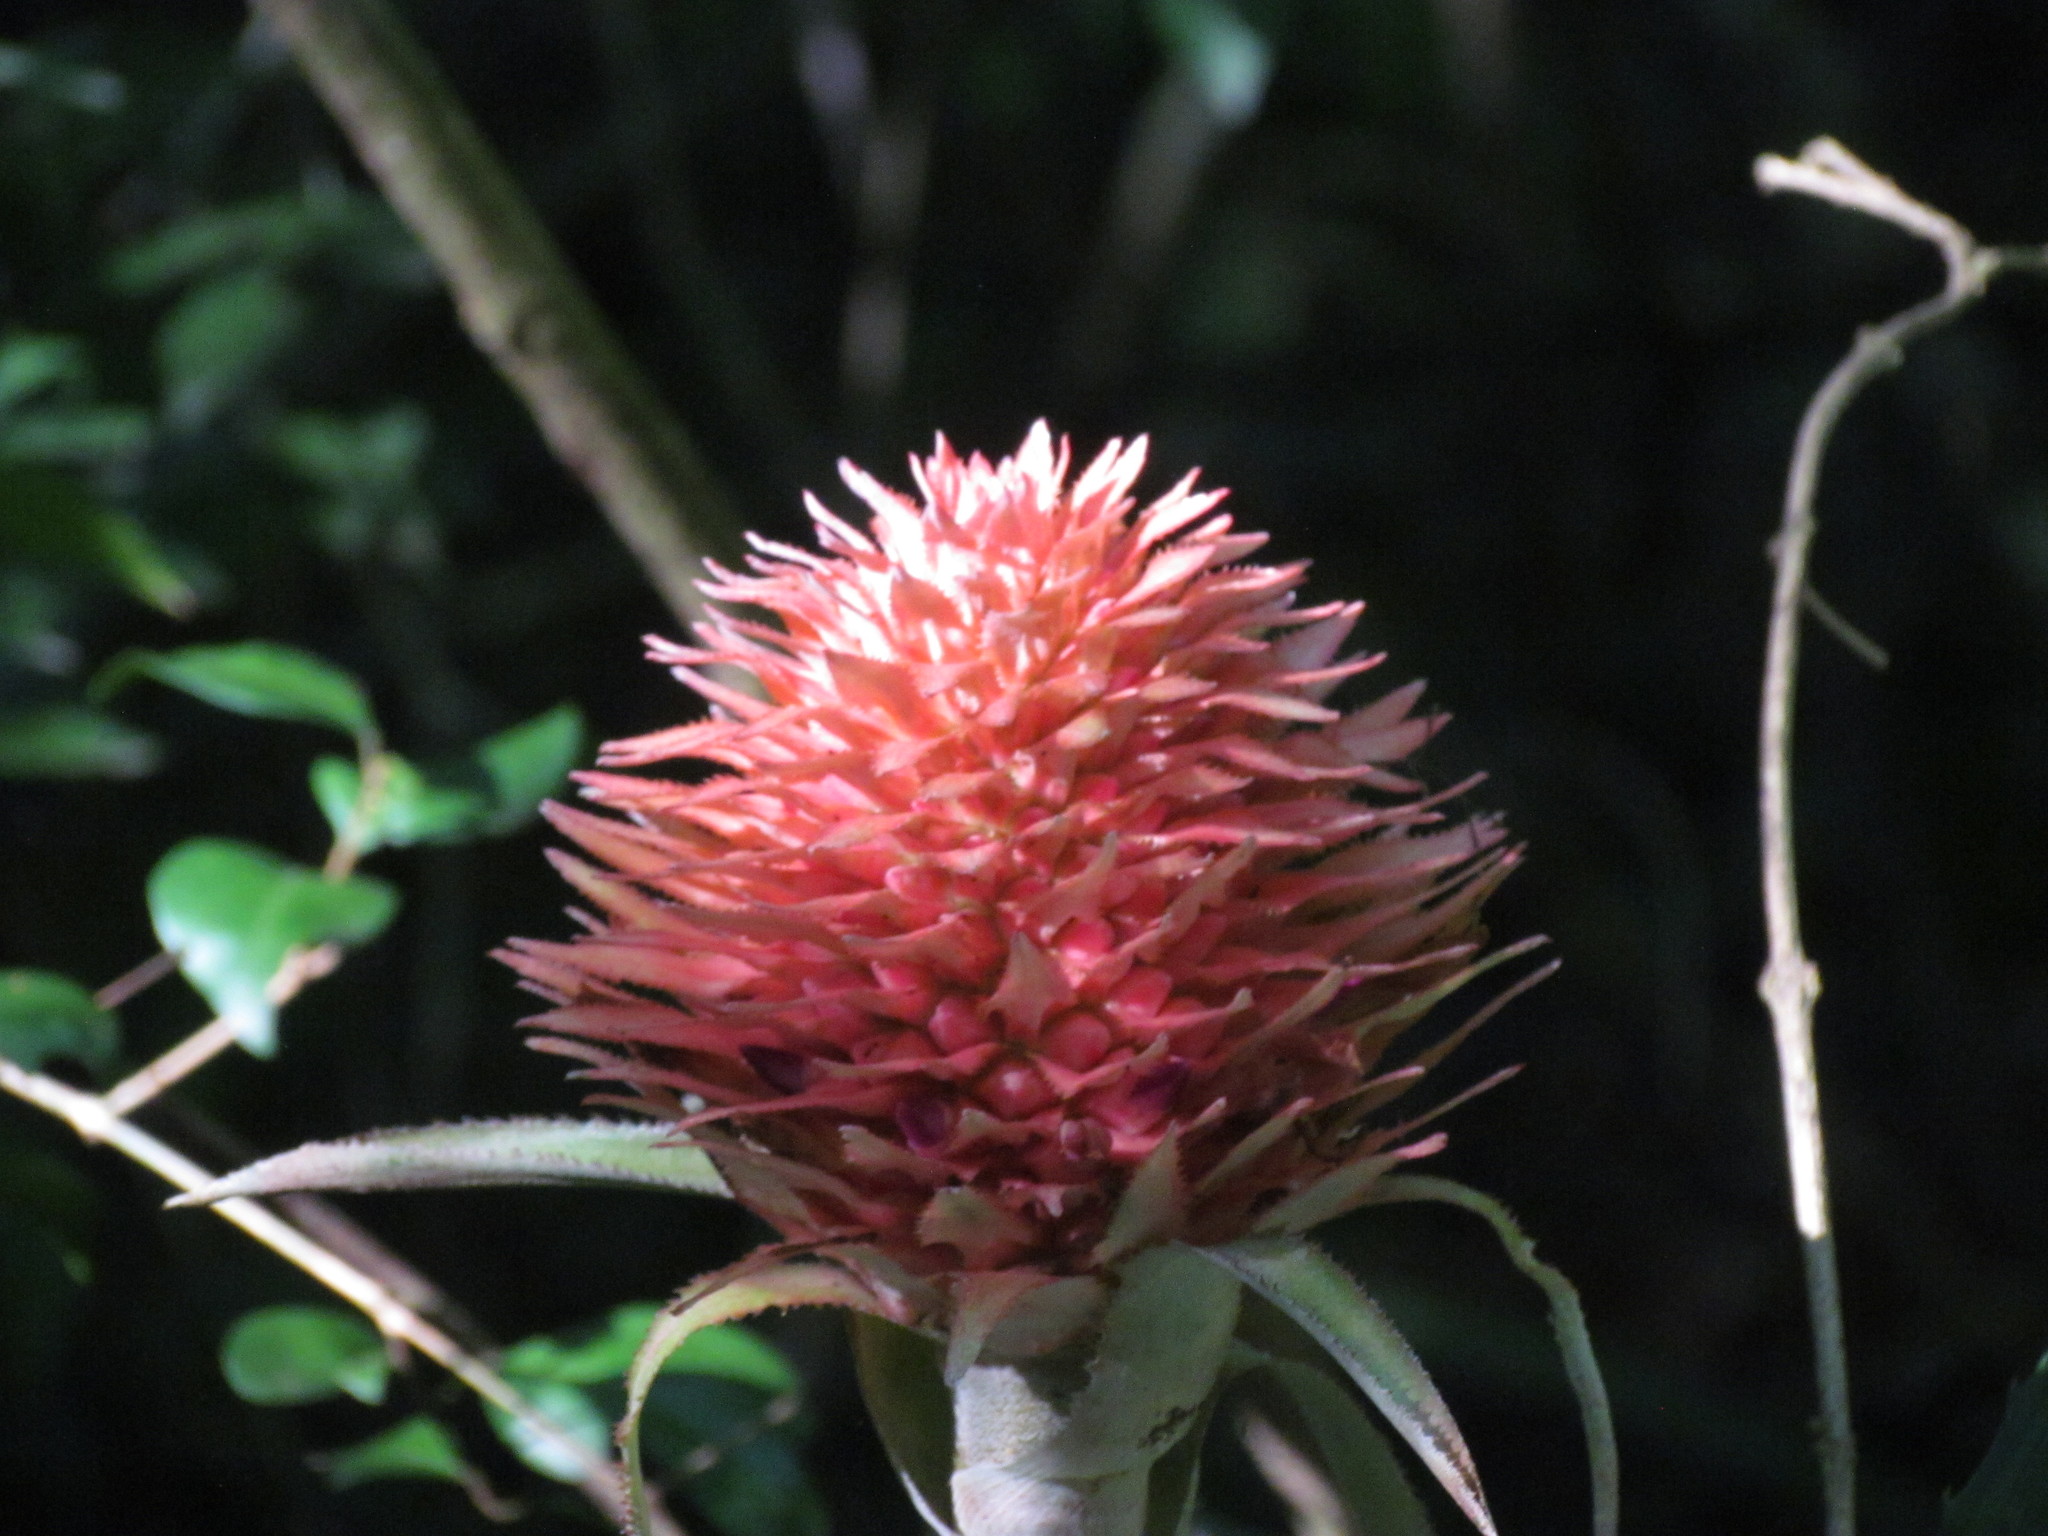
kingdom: Plantae
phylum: Tracheophyta
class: Liliopsida
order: Poales
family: Bromeliaceae
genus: Ananas
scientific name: Ananas macrodontes
